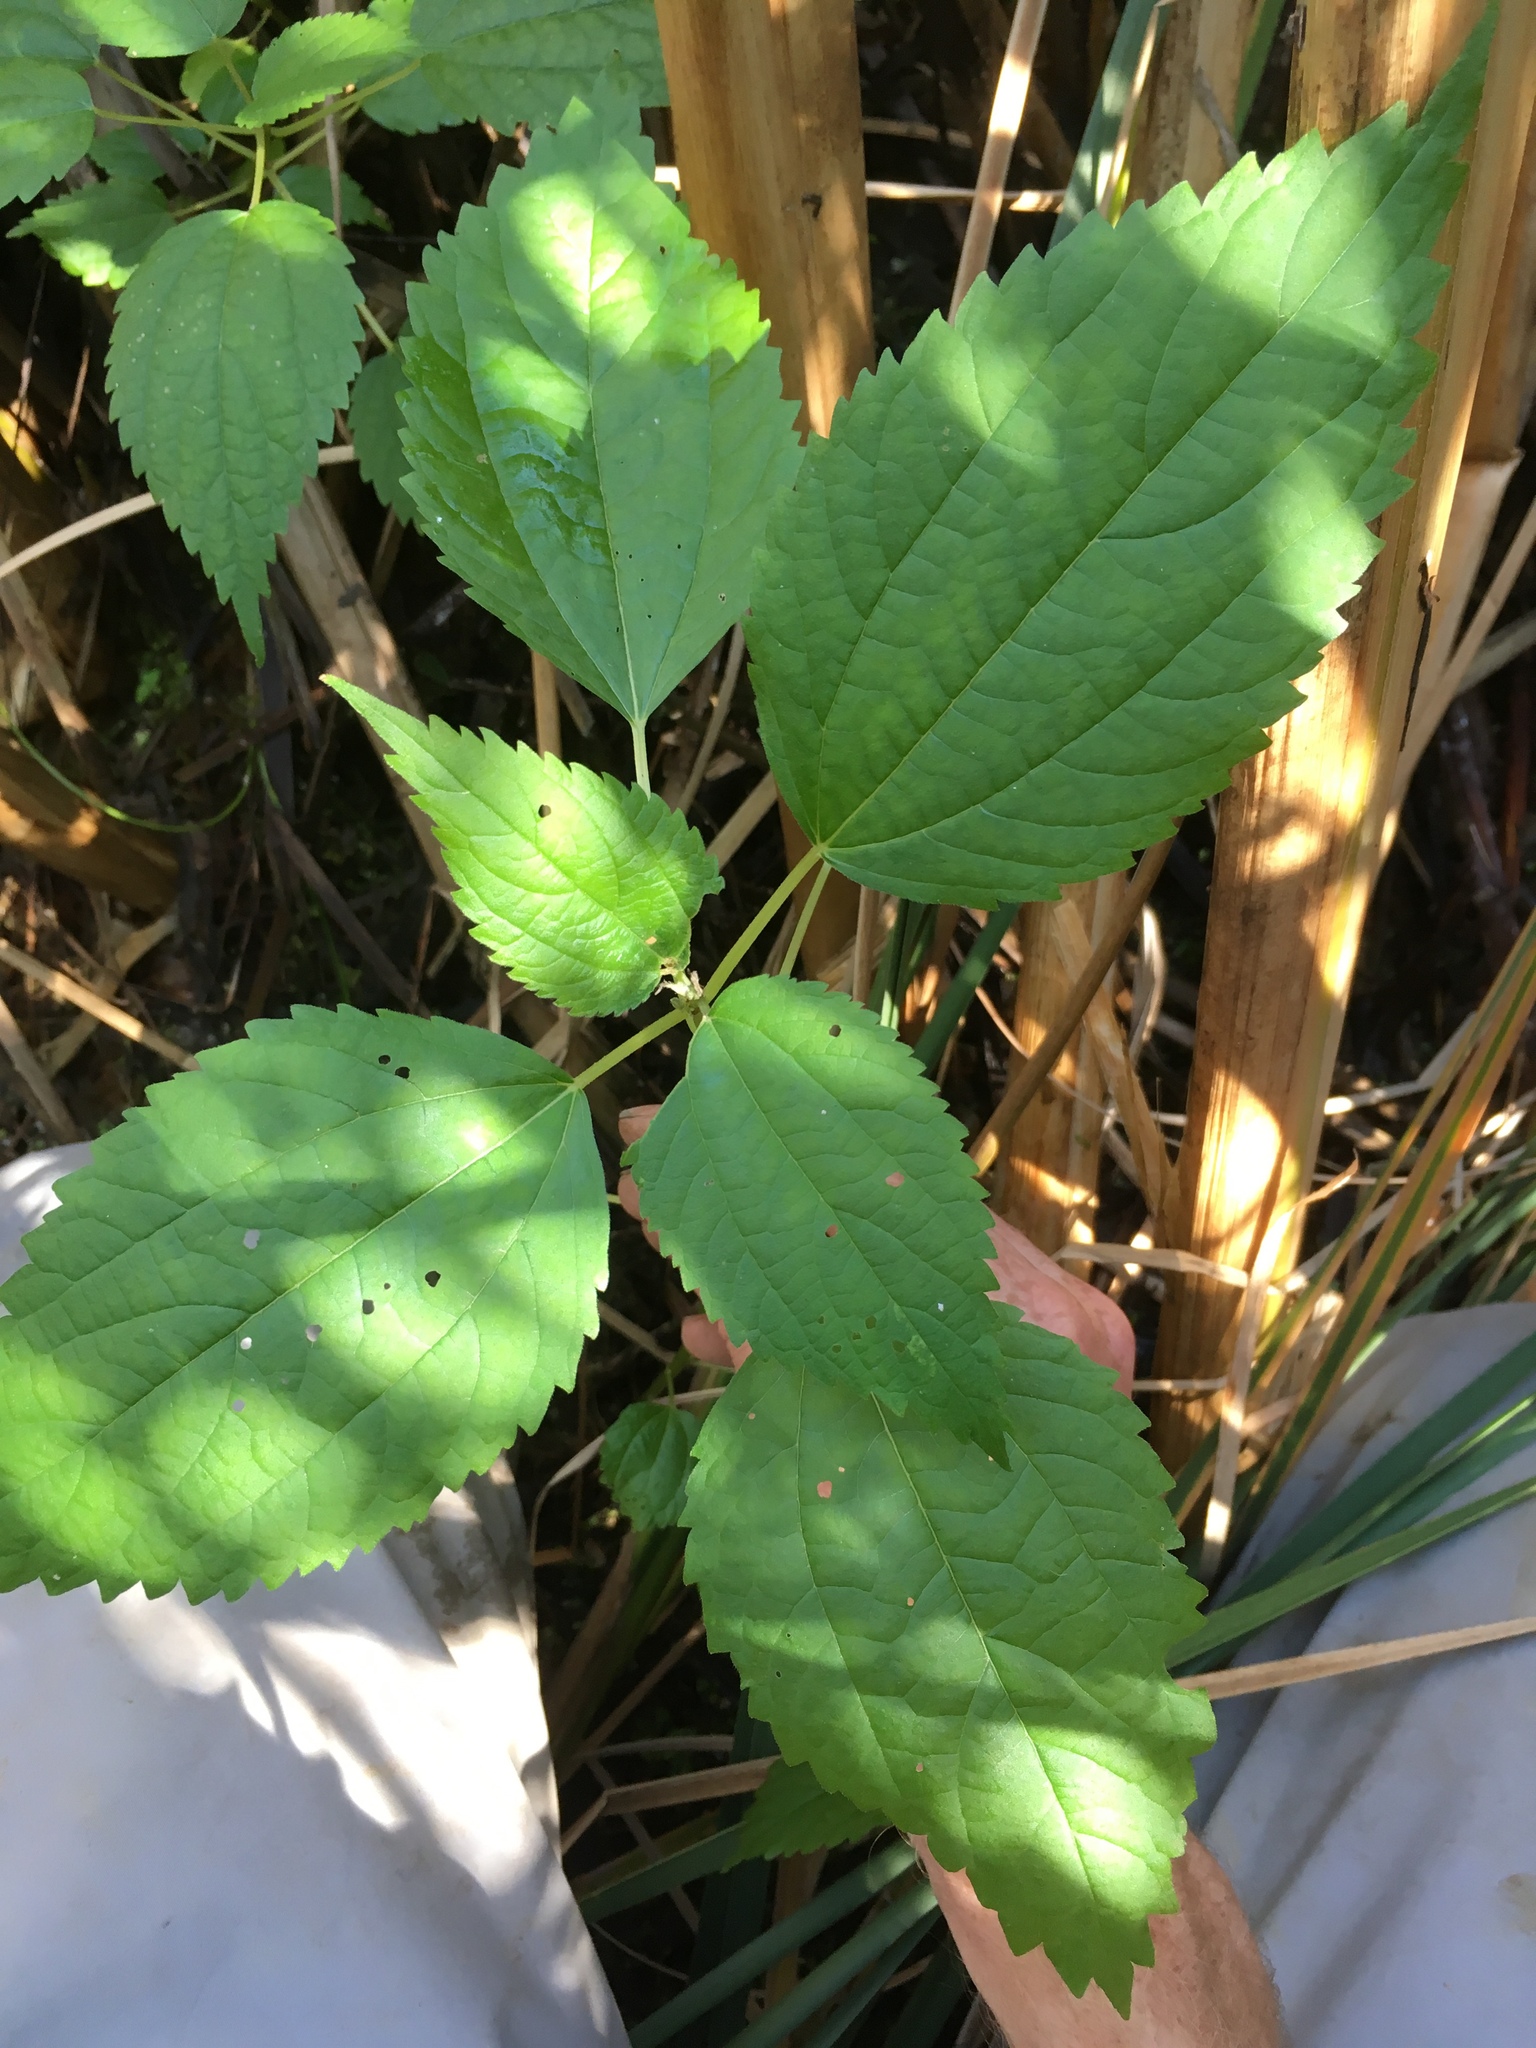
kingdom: Plantae
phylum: Tracheophyta
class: Magnoliopsida
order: Rosales
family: Urticaceae
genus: Boehmeria
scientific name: Boehmeria cylindrica
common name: Bog-hemp
